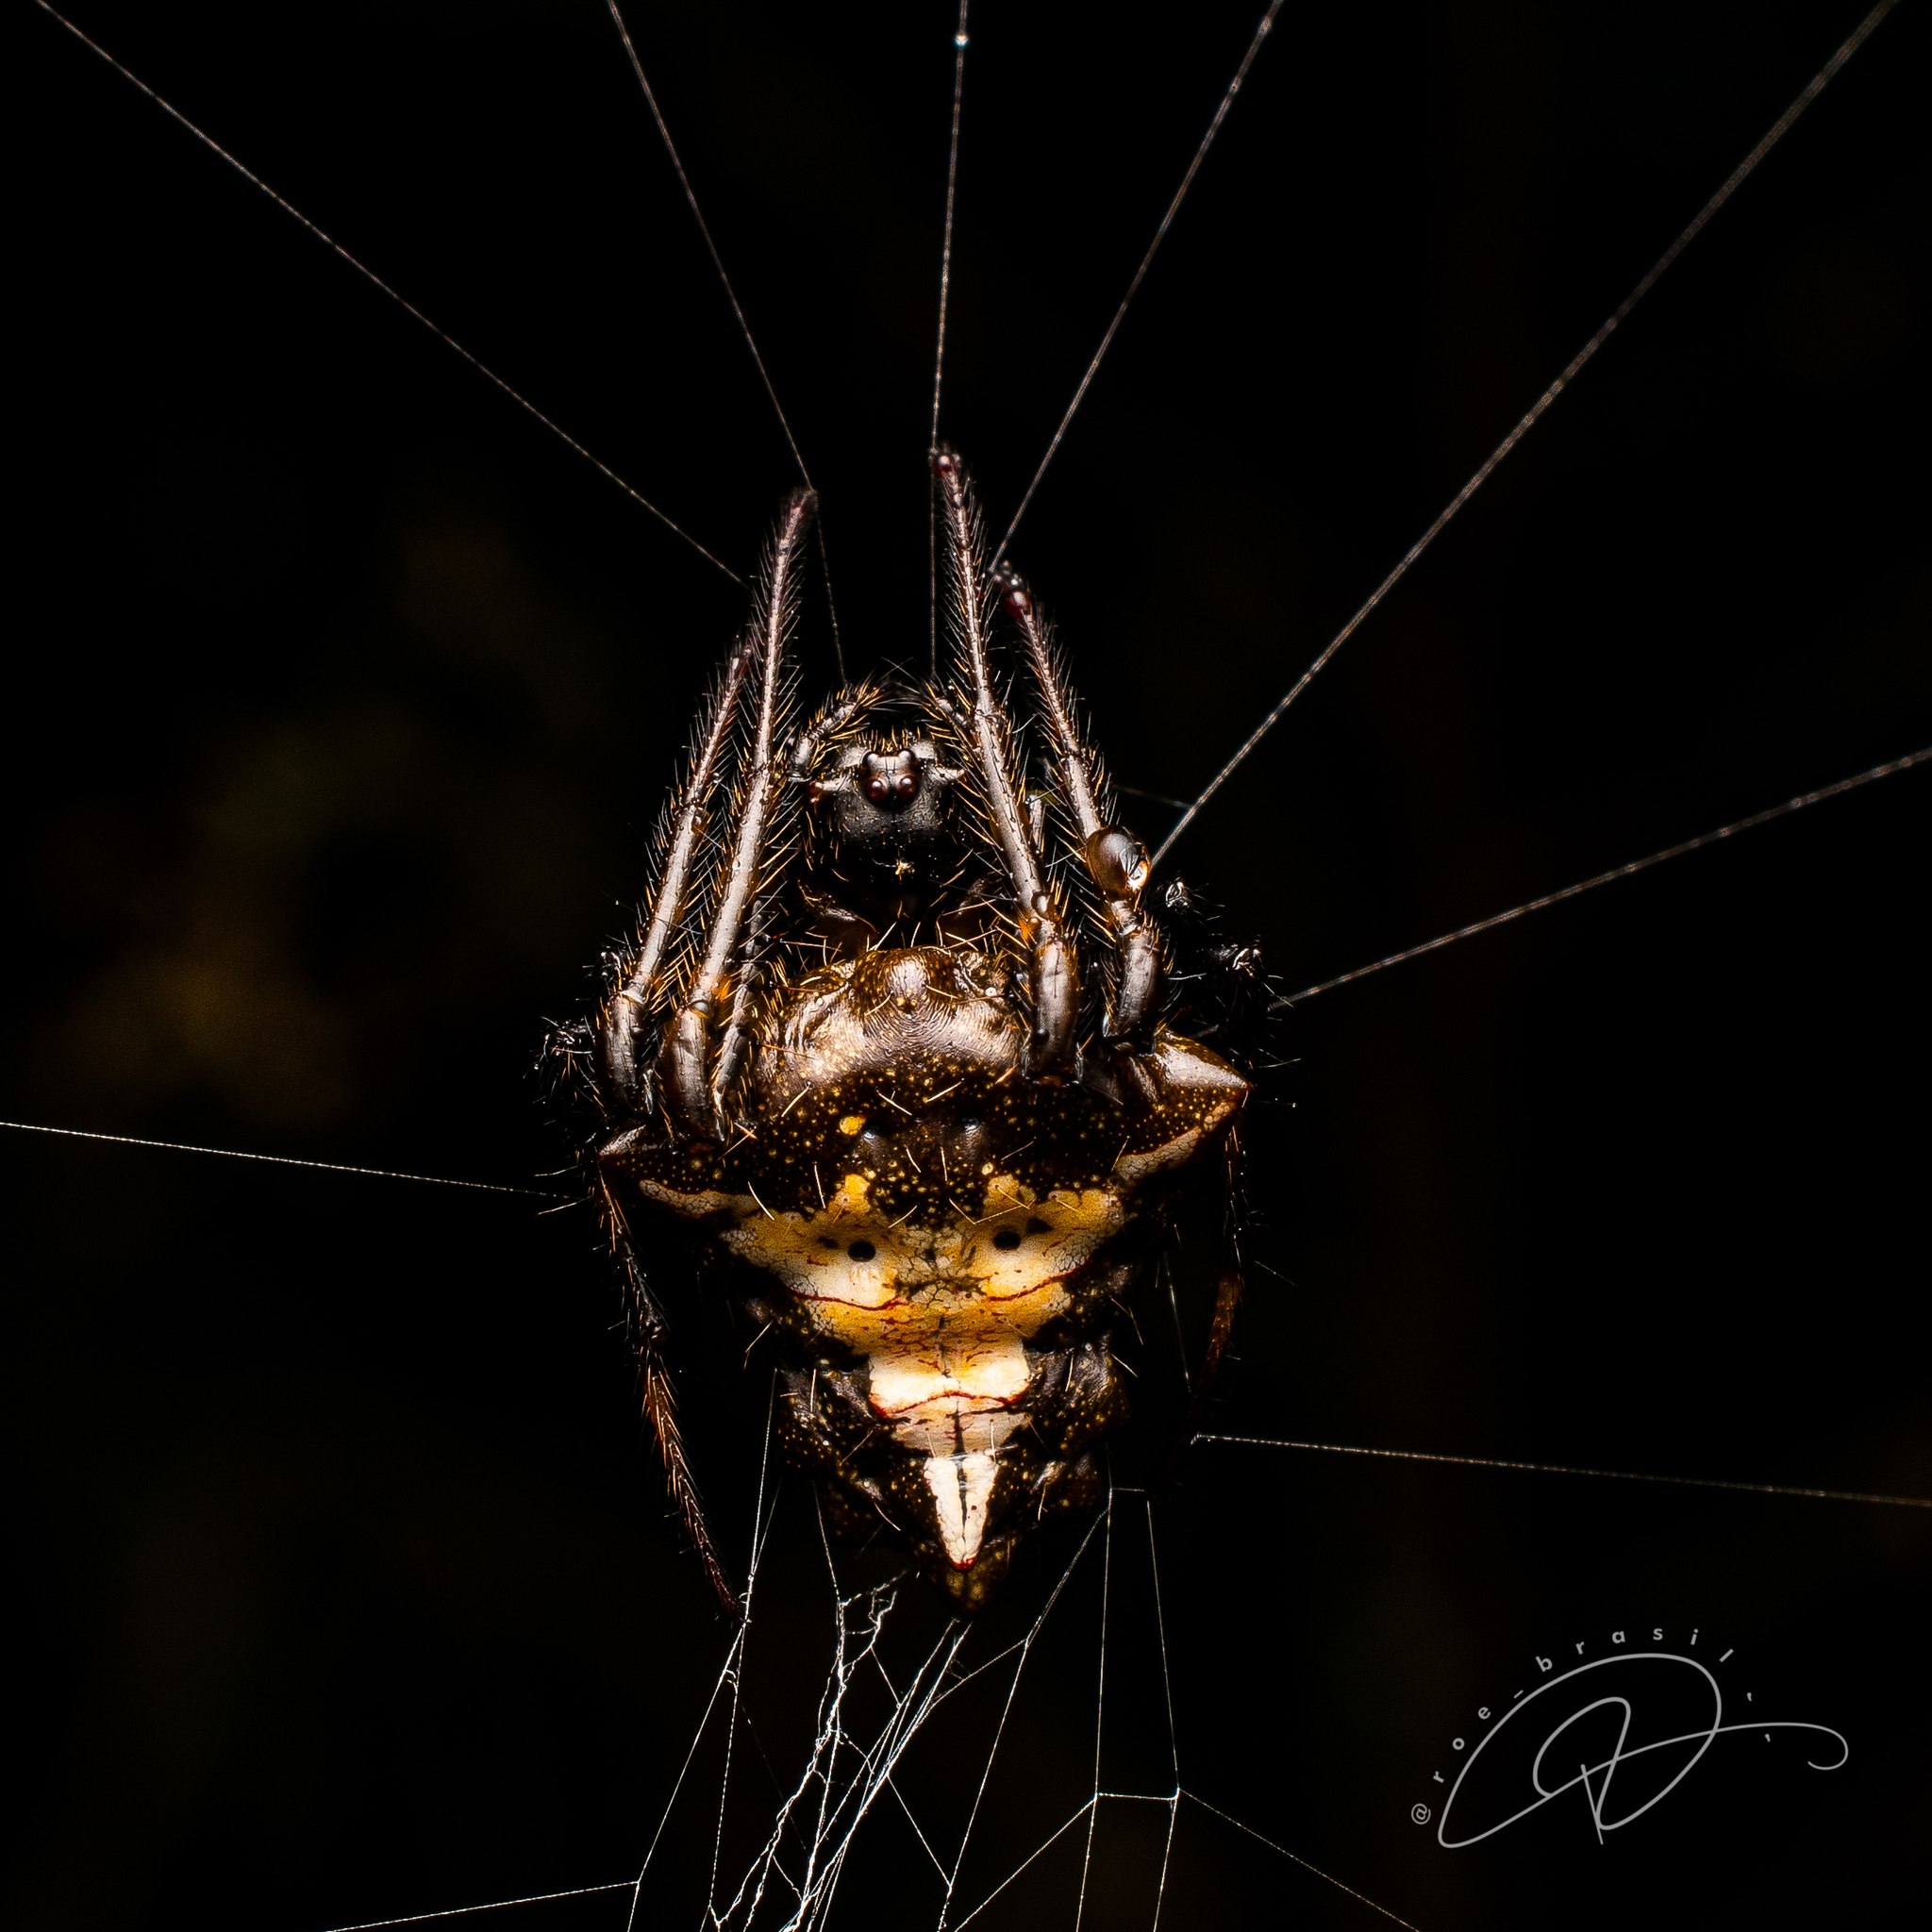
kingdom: Animalia
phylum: Arthropoda
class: Arachnida
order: Araneae
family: Araneidae
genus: Verrucosa
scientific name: Verrucosa meridionalis
